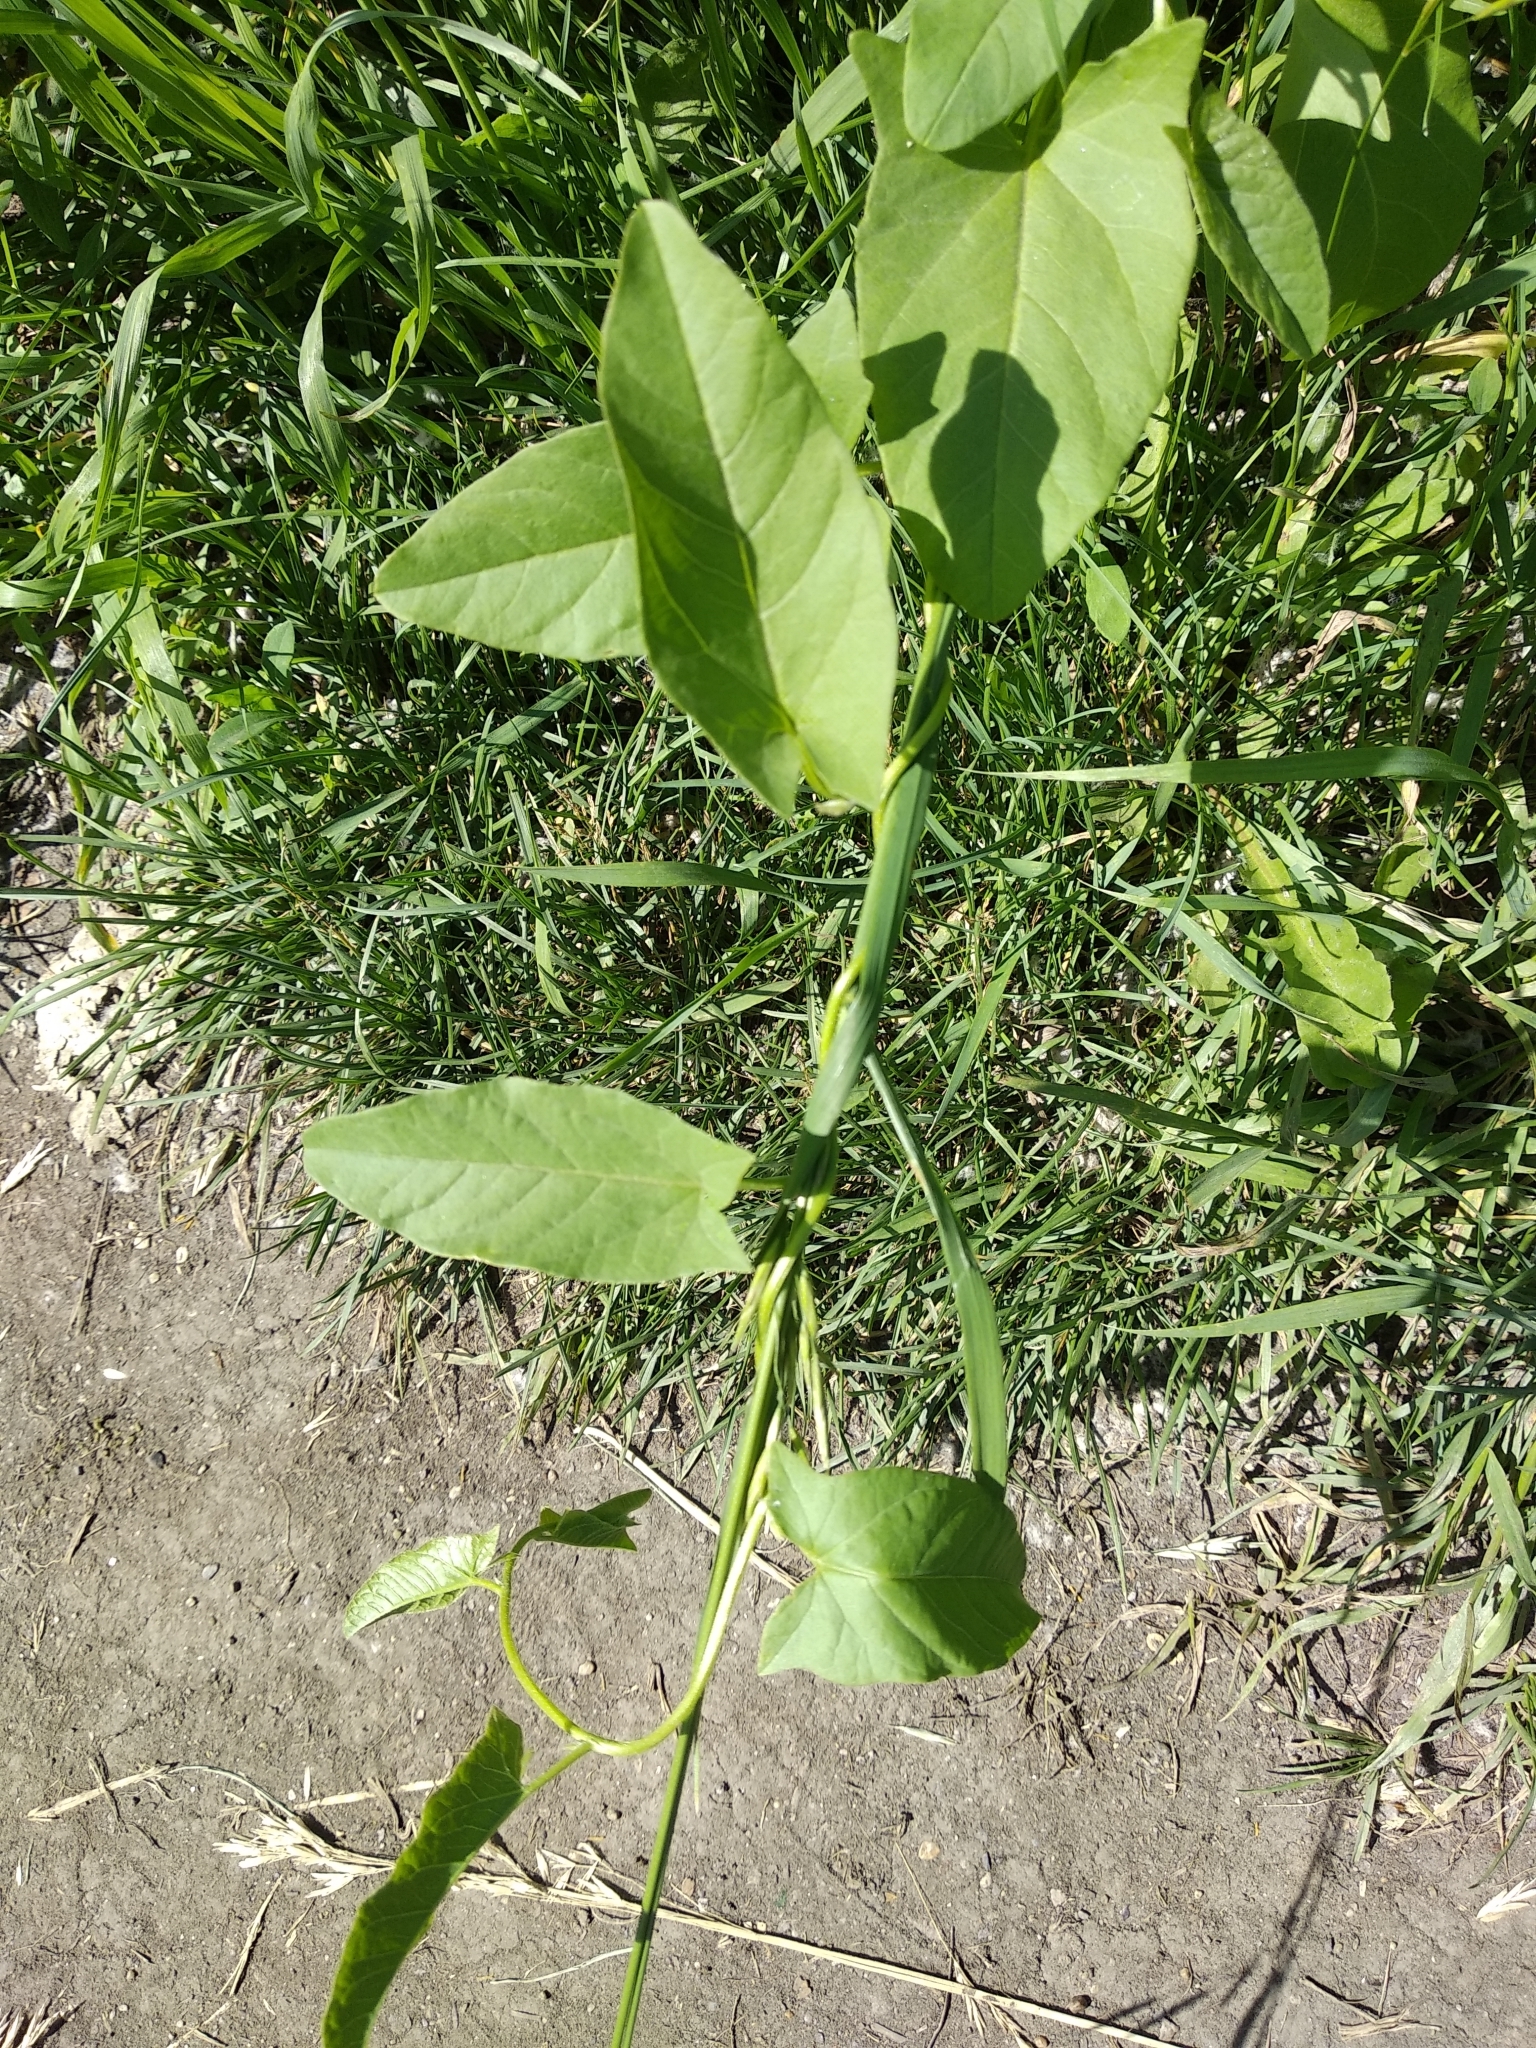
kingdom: Plantae
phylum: Tracheophyta
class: Magnoliopsida
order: Solanales
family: Convolvulaceae
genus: Convolvulus
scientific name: Convolvulus arvensis
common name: Field bindweed
